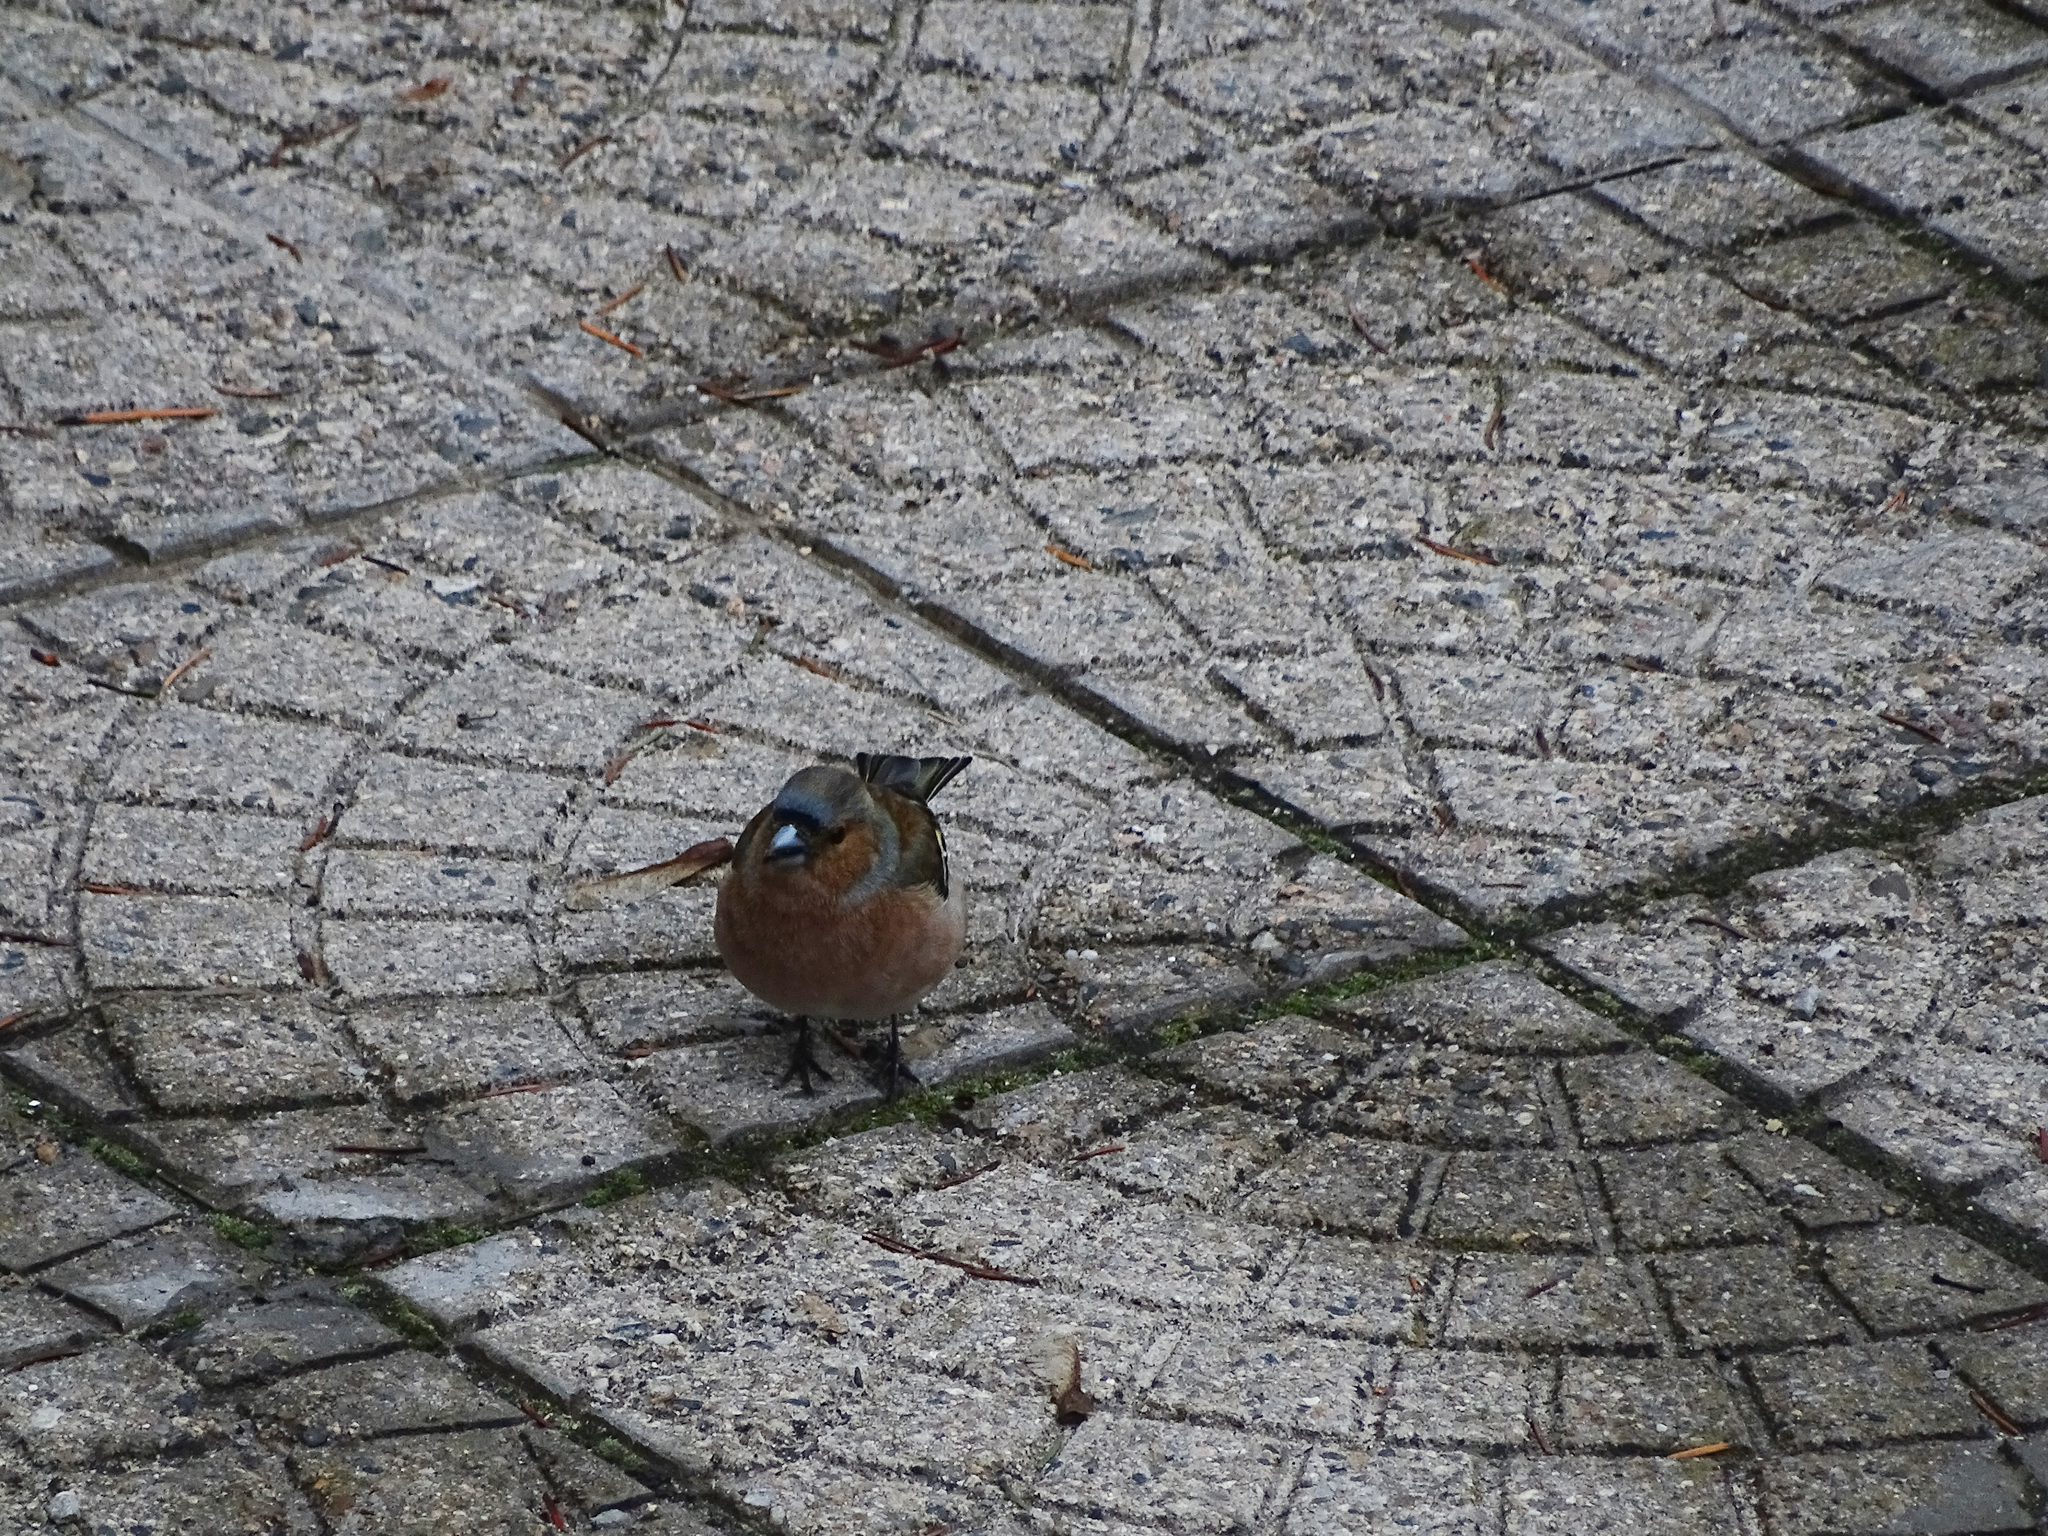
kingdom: Animalia
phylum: Chordata
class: Aves
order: Passeriformes
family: Fringillidae
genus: Fringilla
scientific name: Fringilla coelebs
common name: Common chaffinch
